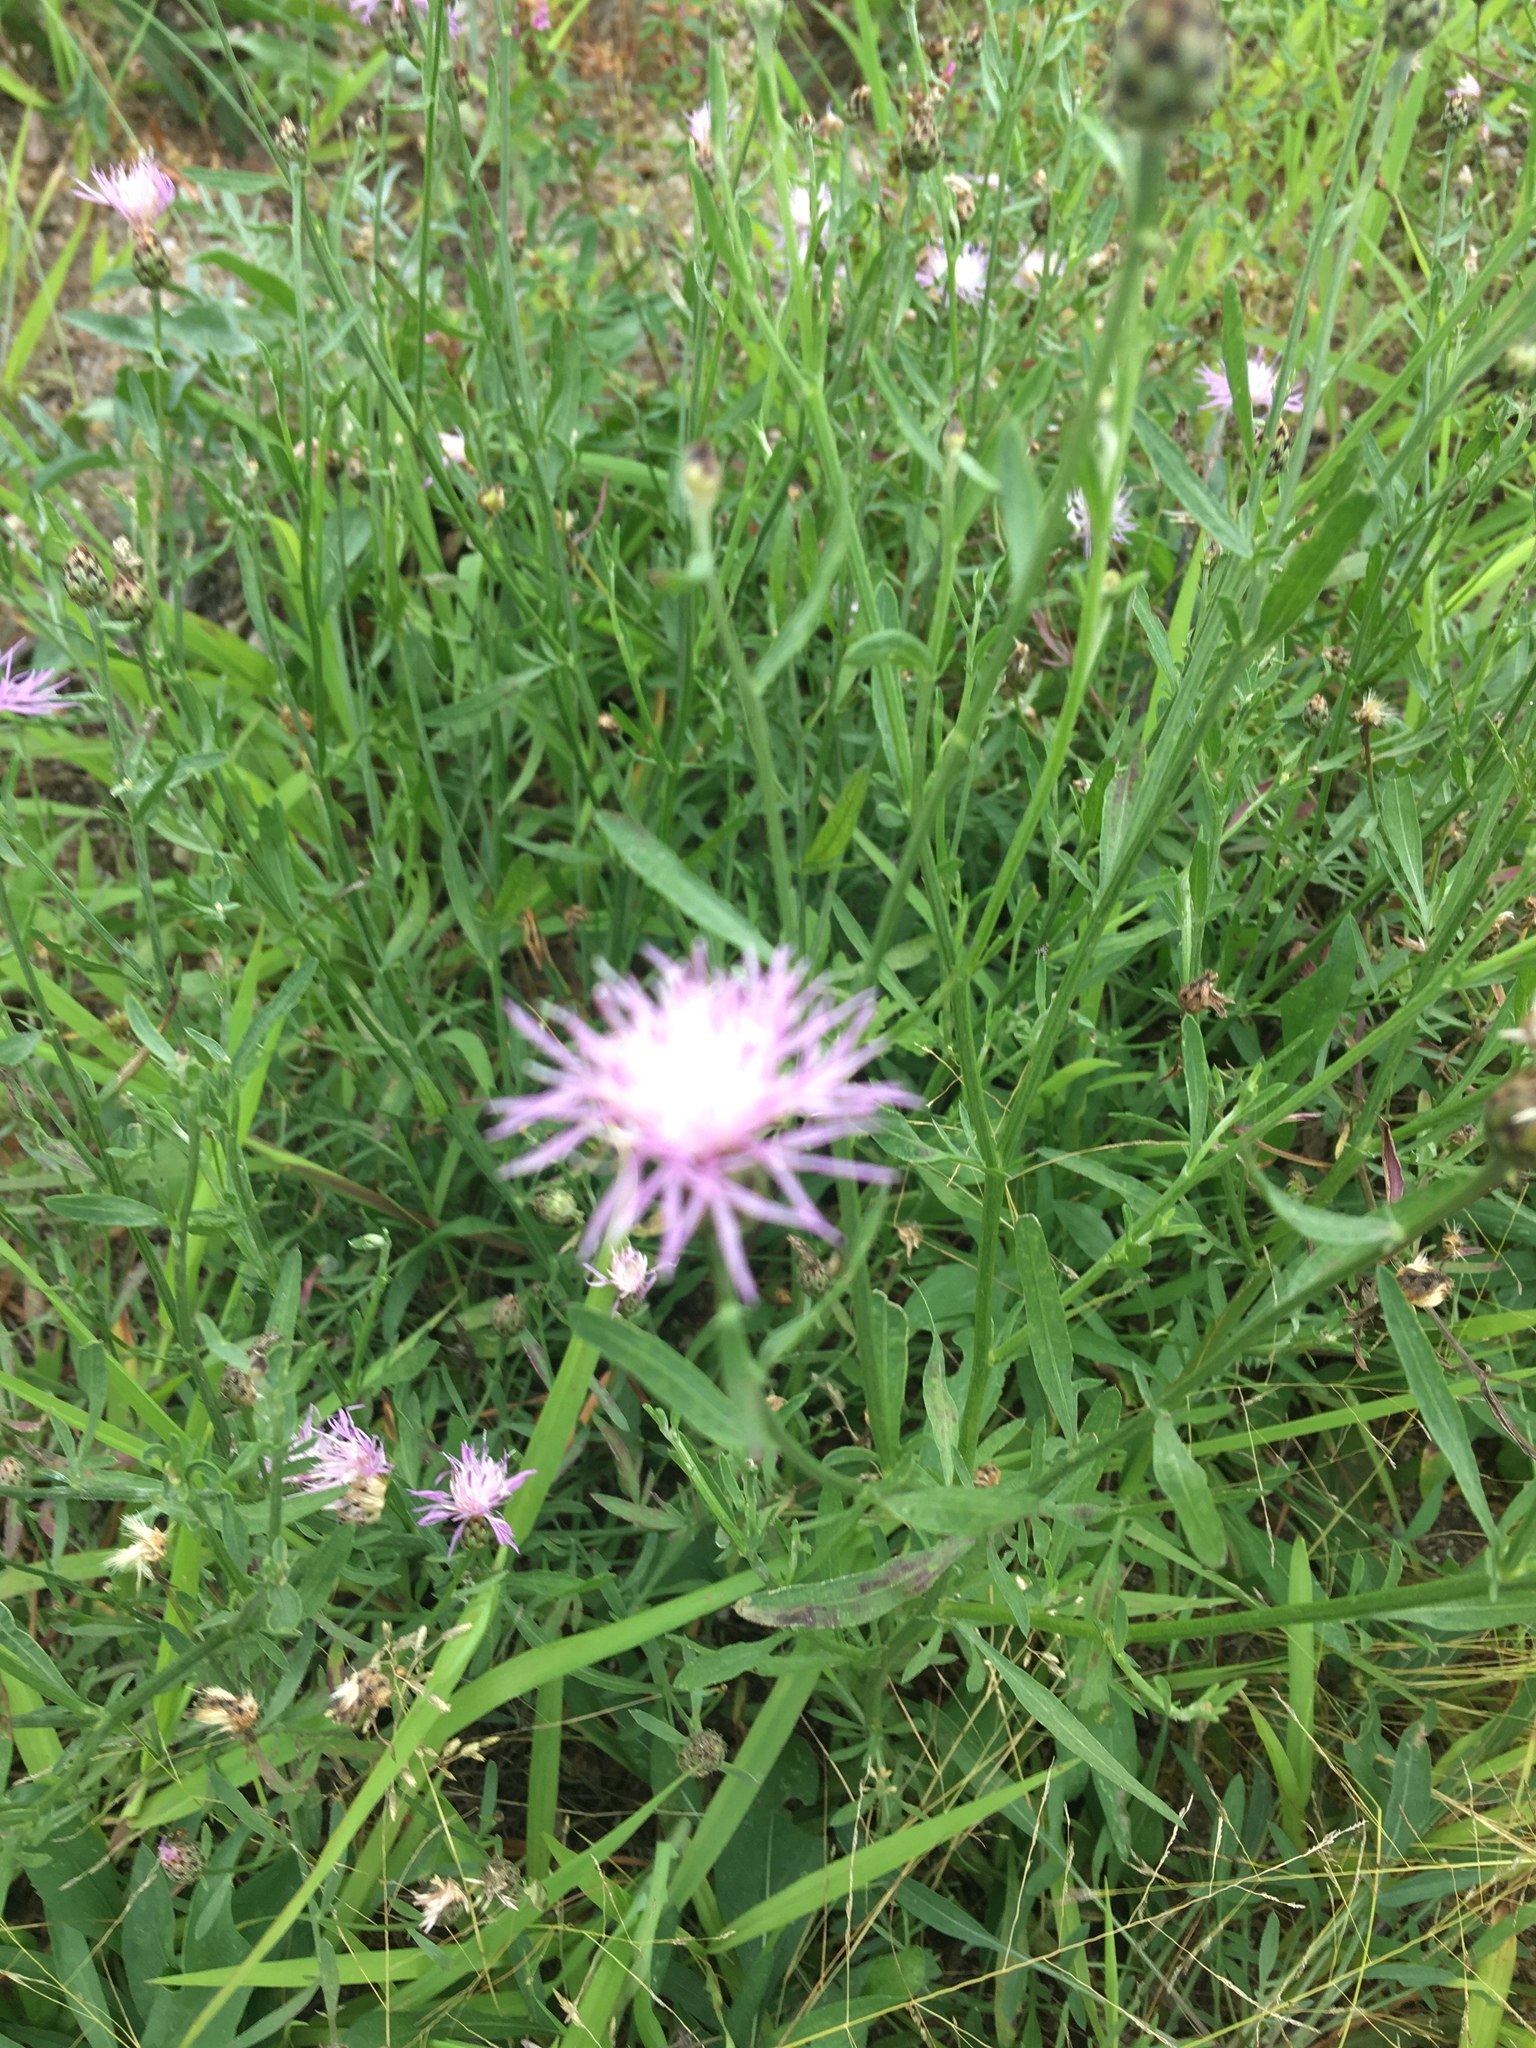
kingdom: Plantae
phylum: Tracheophyta
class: Magnoliopsida
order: Asterales
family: Asteraceae
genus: Centaurea
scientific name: Centaurea stoebe
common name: Spotted knapweed
